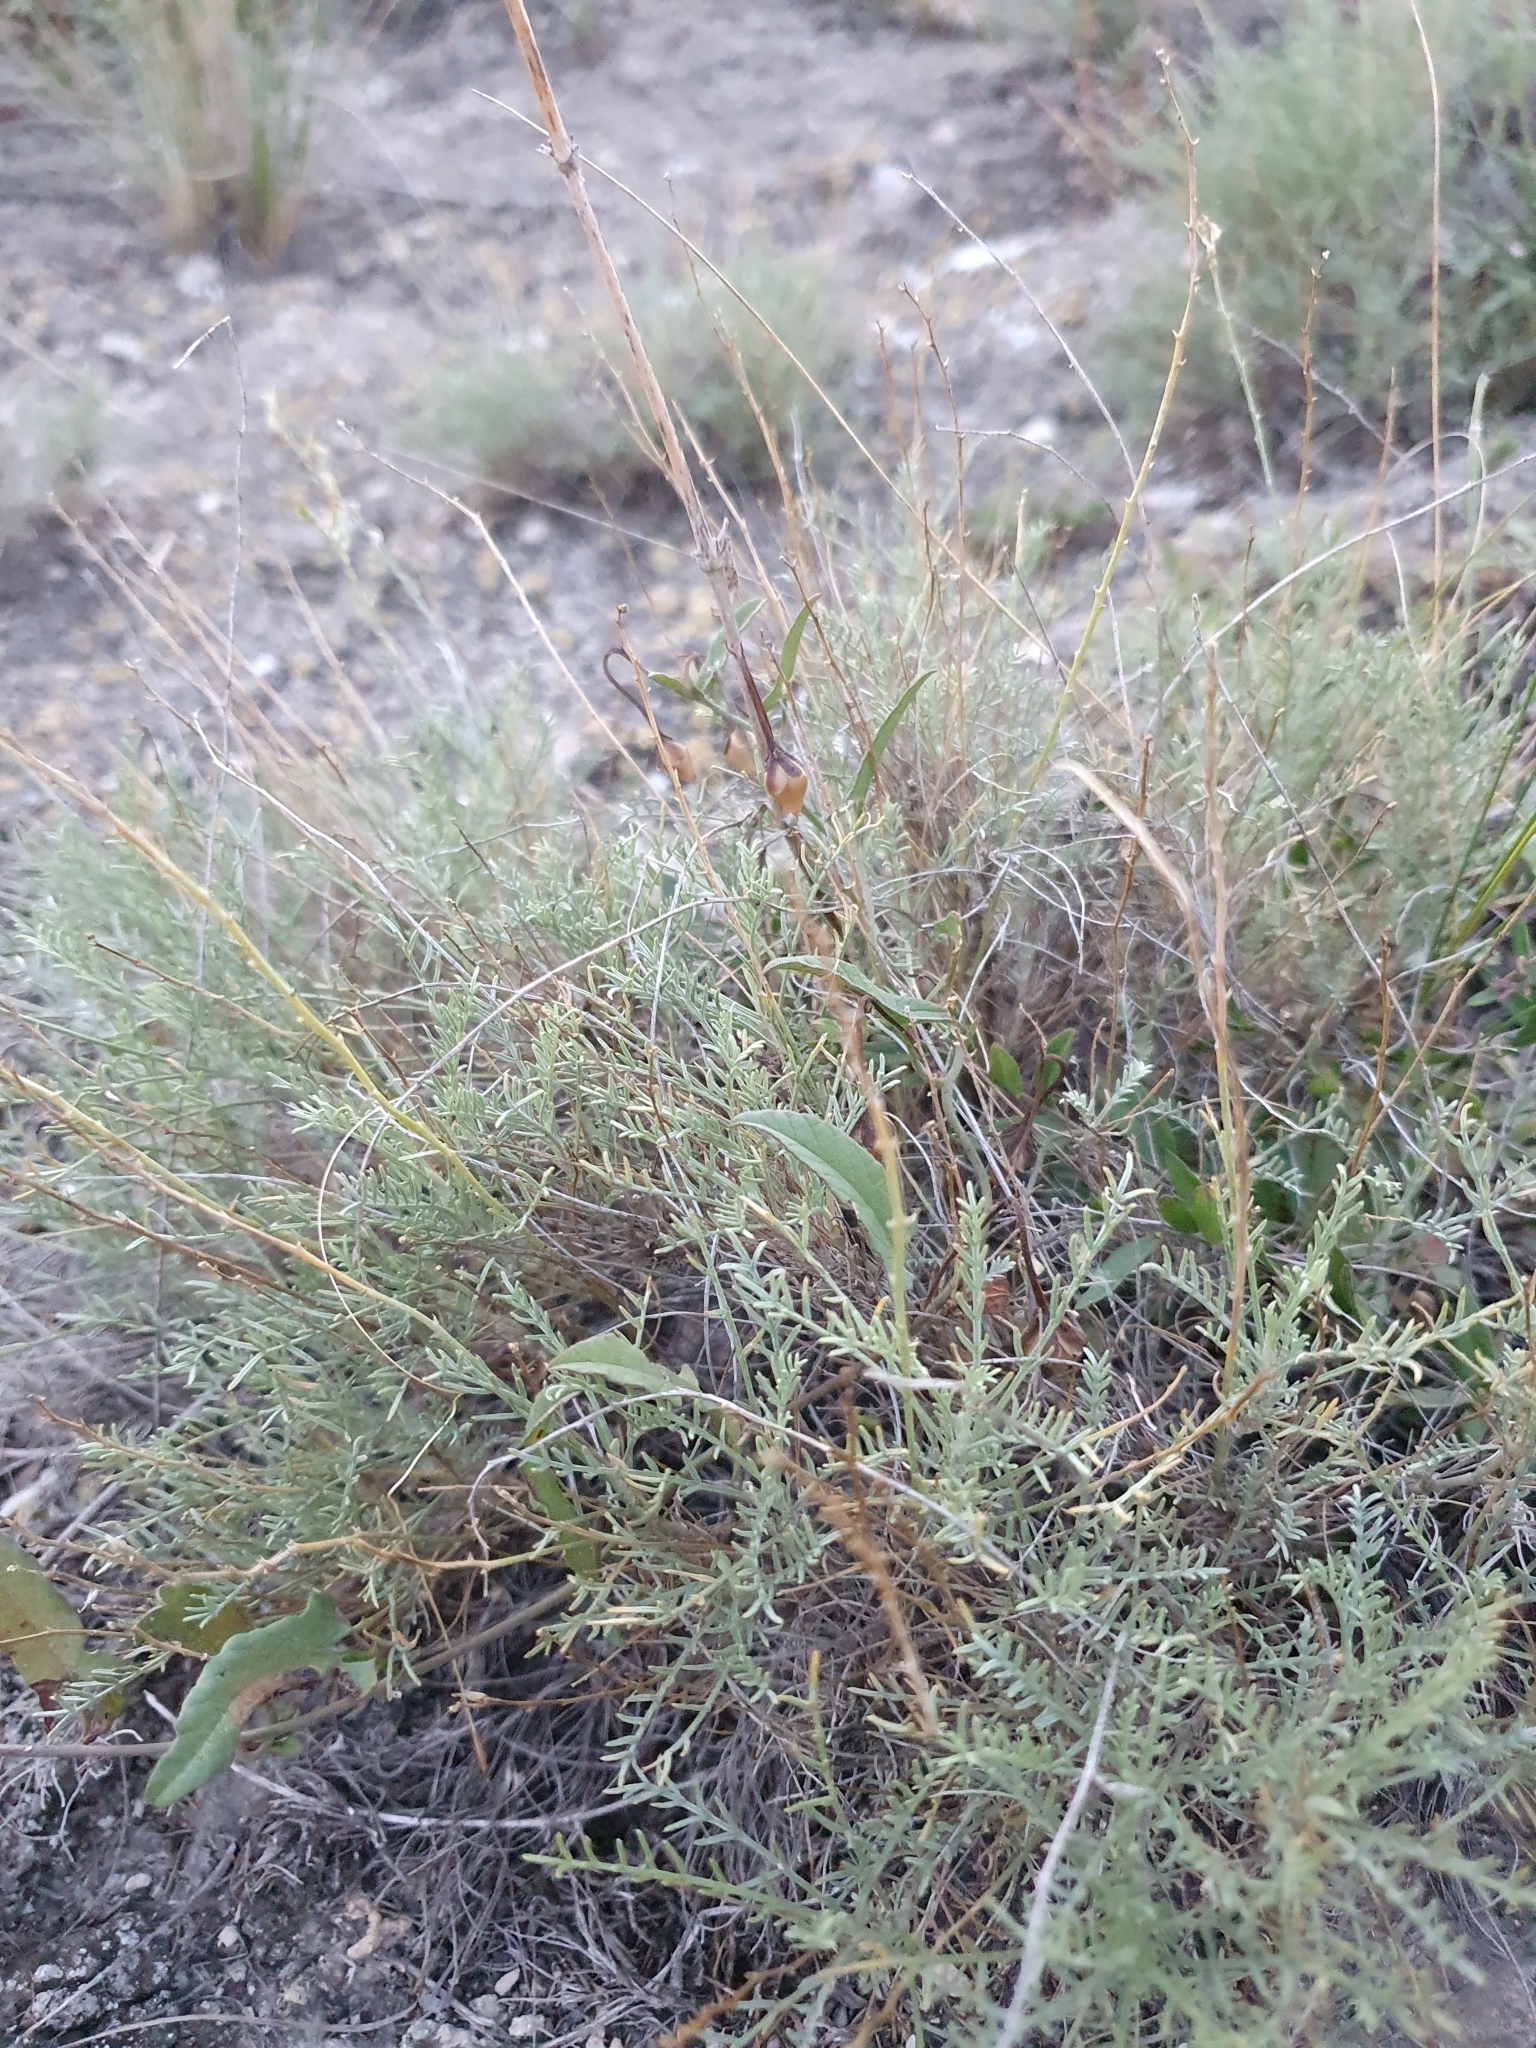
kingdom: Plantae
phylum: Tracheophyta
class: Magnoliopsida
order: Fabales
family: Fabaceae
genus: Astragalus
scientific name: Astragalus
